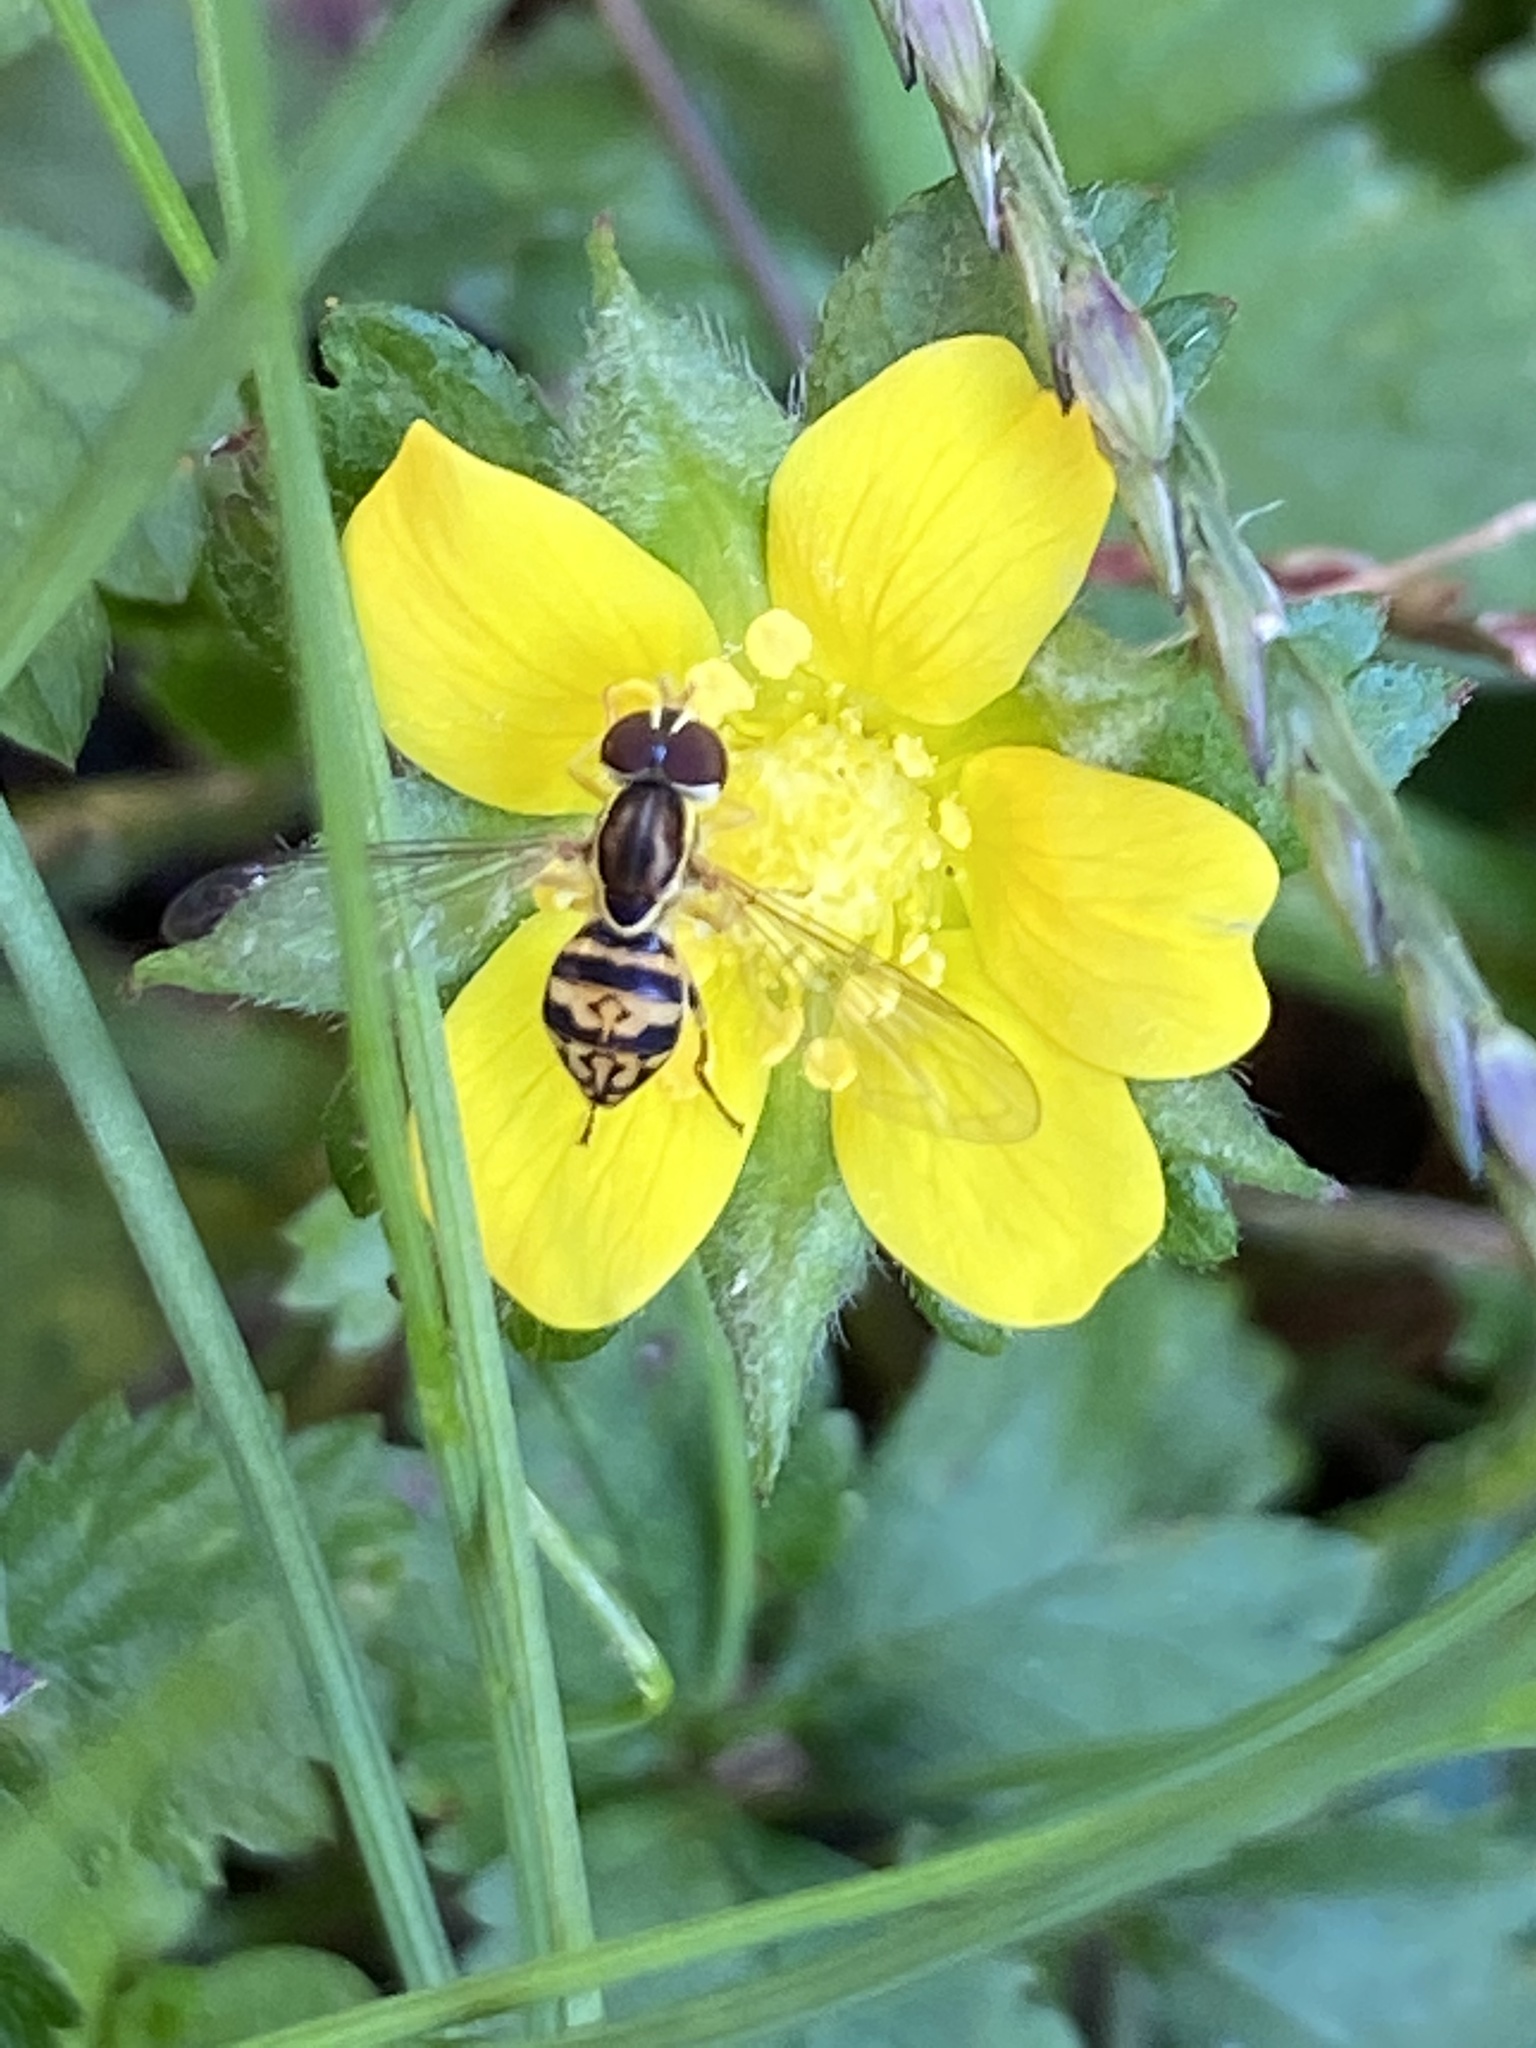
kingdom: Animalia
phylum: Arthropoda
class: Insecta
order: Diptera
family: Syrphidae
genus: Toxomerus
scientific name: Toxomerus geminatus
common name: Eastern calligrapher
